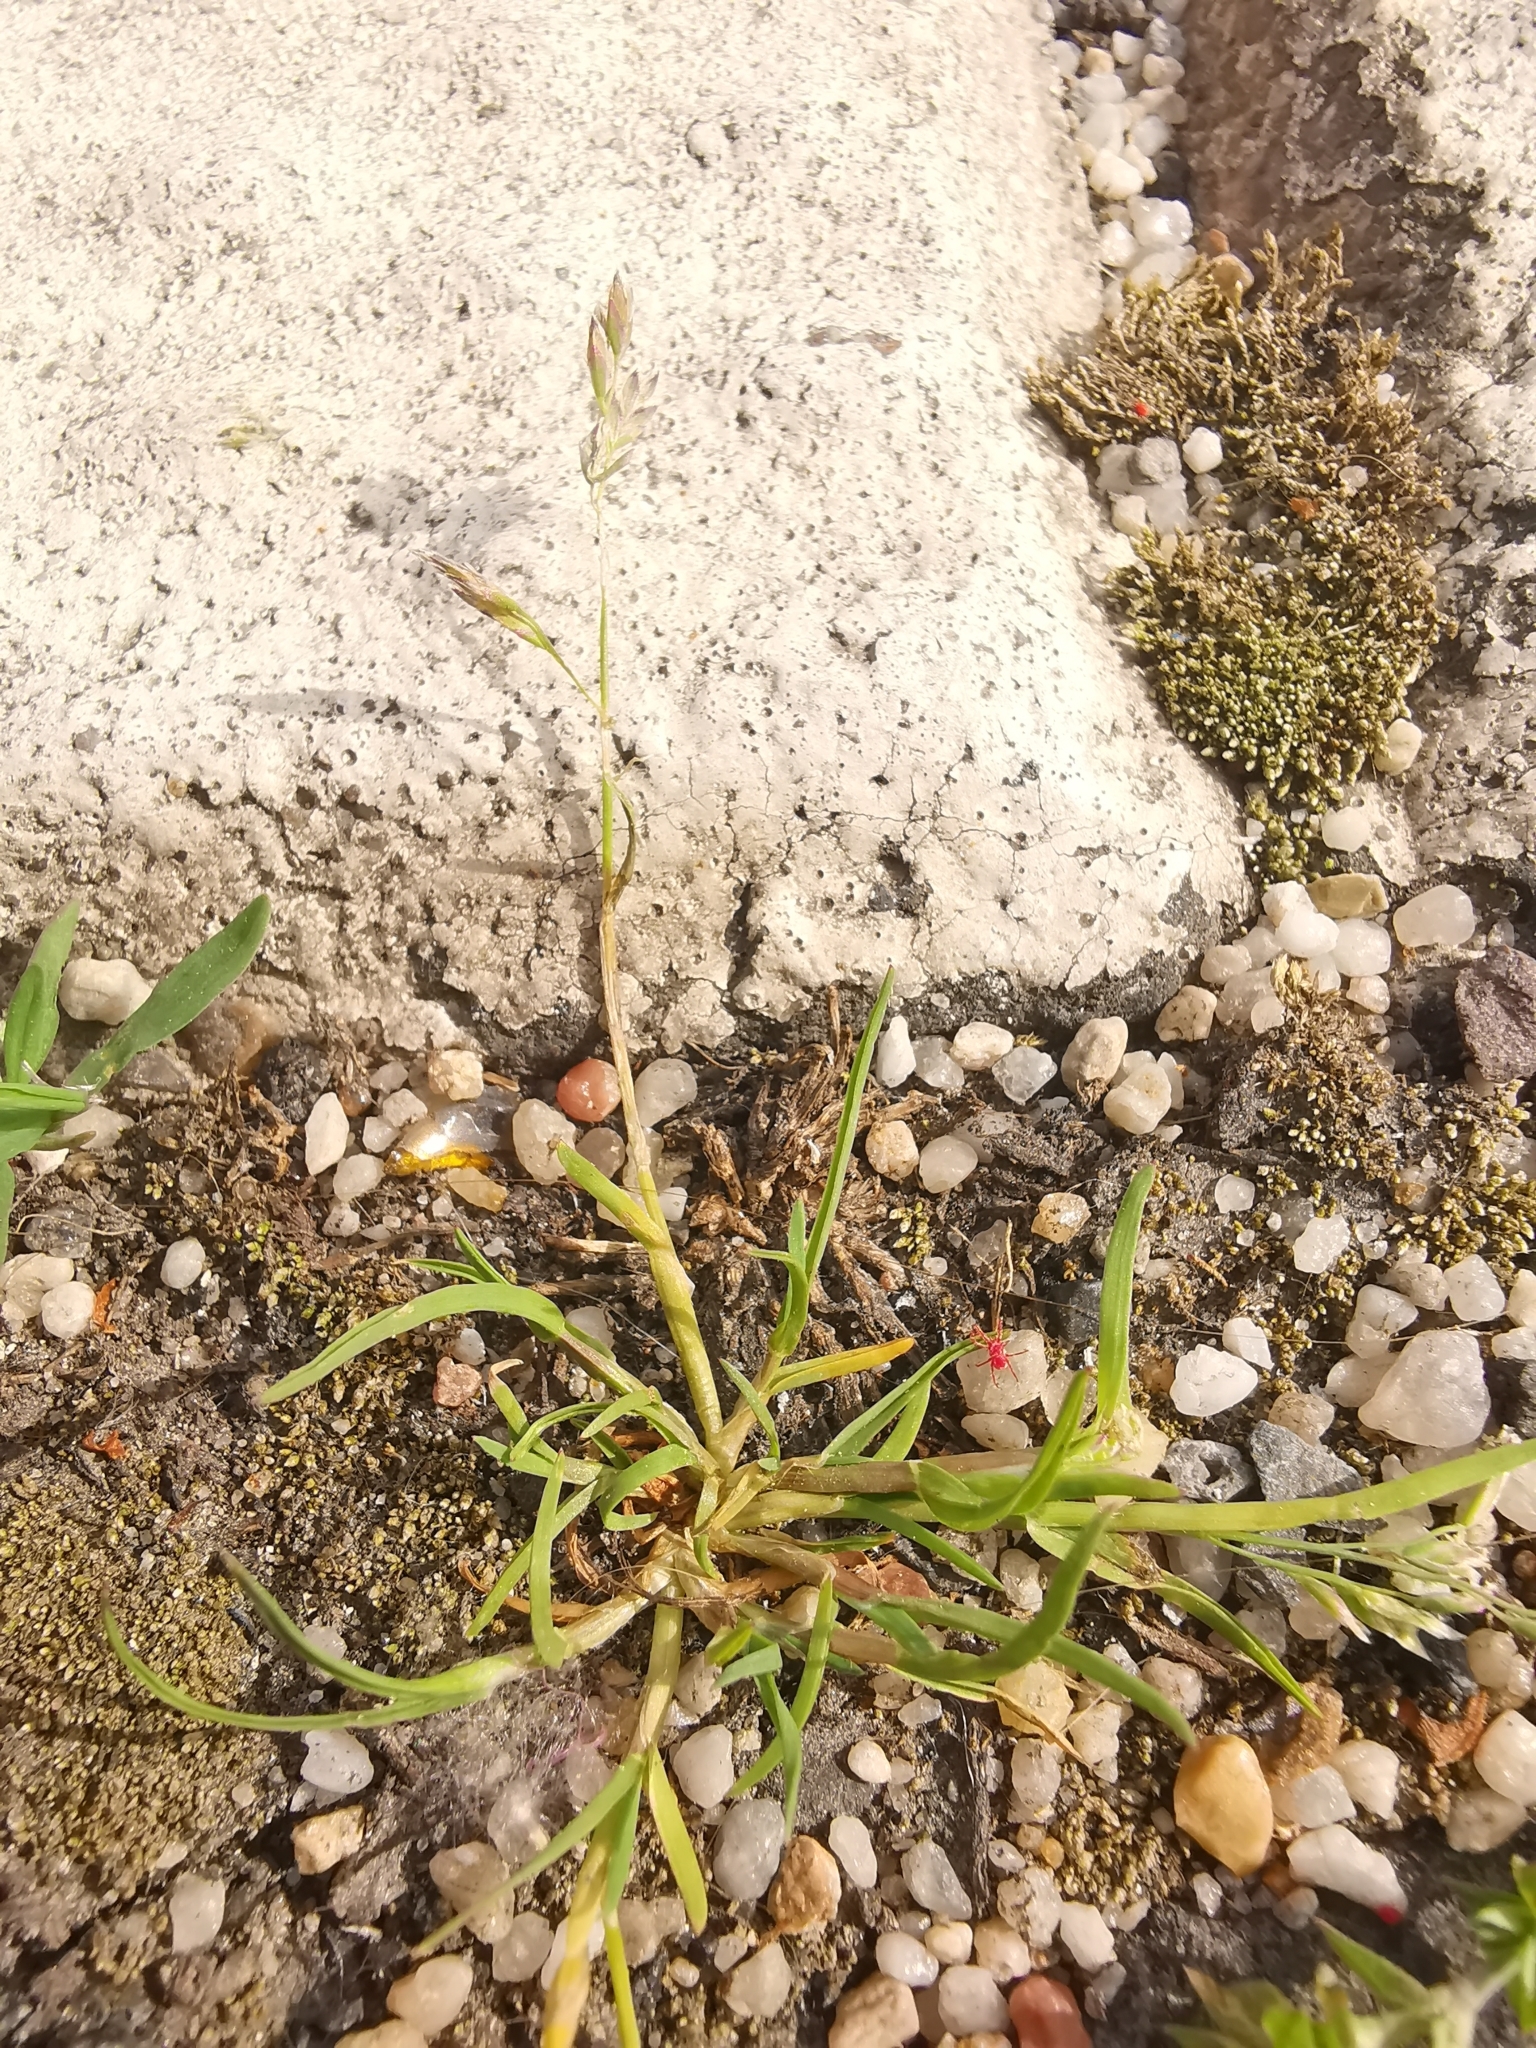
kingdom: Plantae
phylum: Tracheophyta
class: Liliopsida
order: Poales
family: Poaceae
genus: Poa
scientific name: Poa annua
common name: Annual bluegrass
